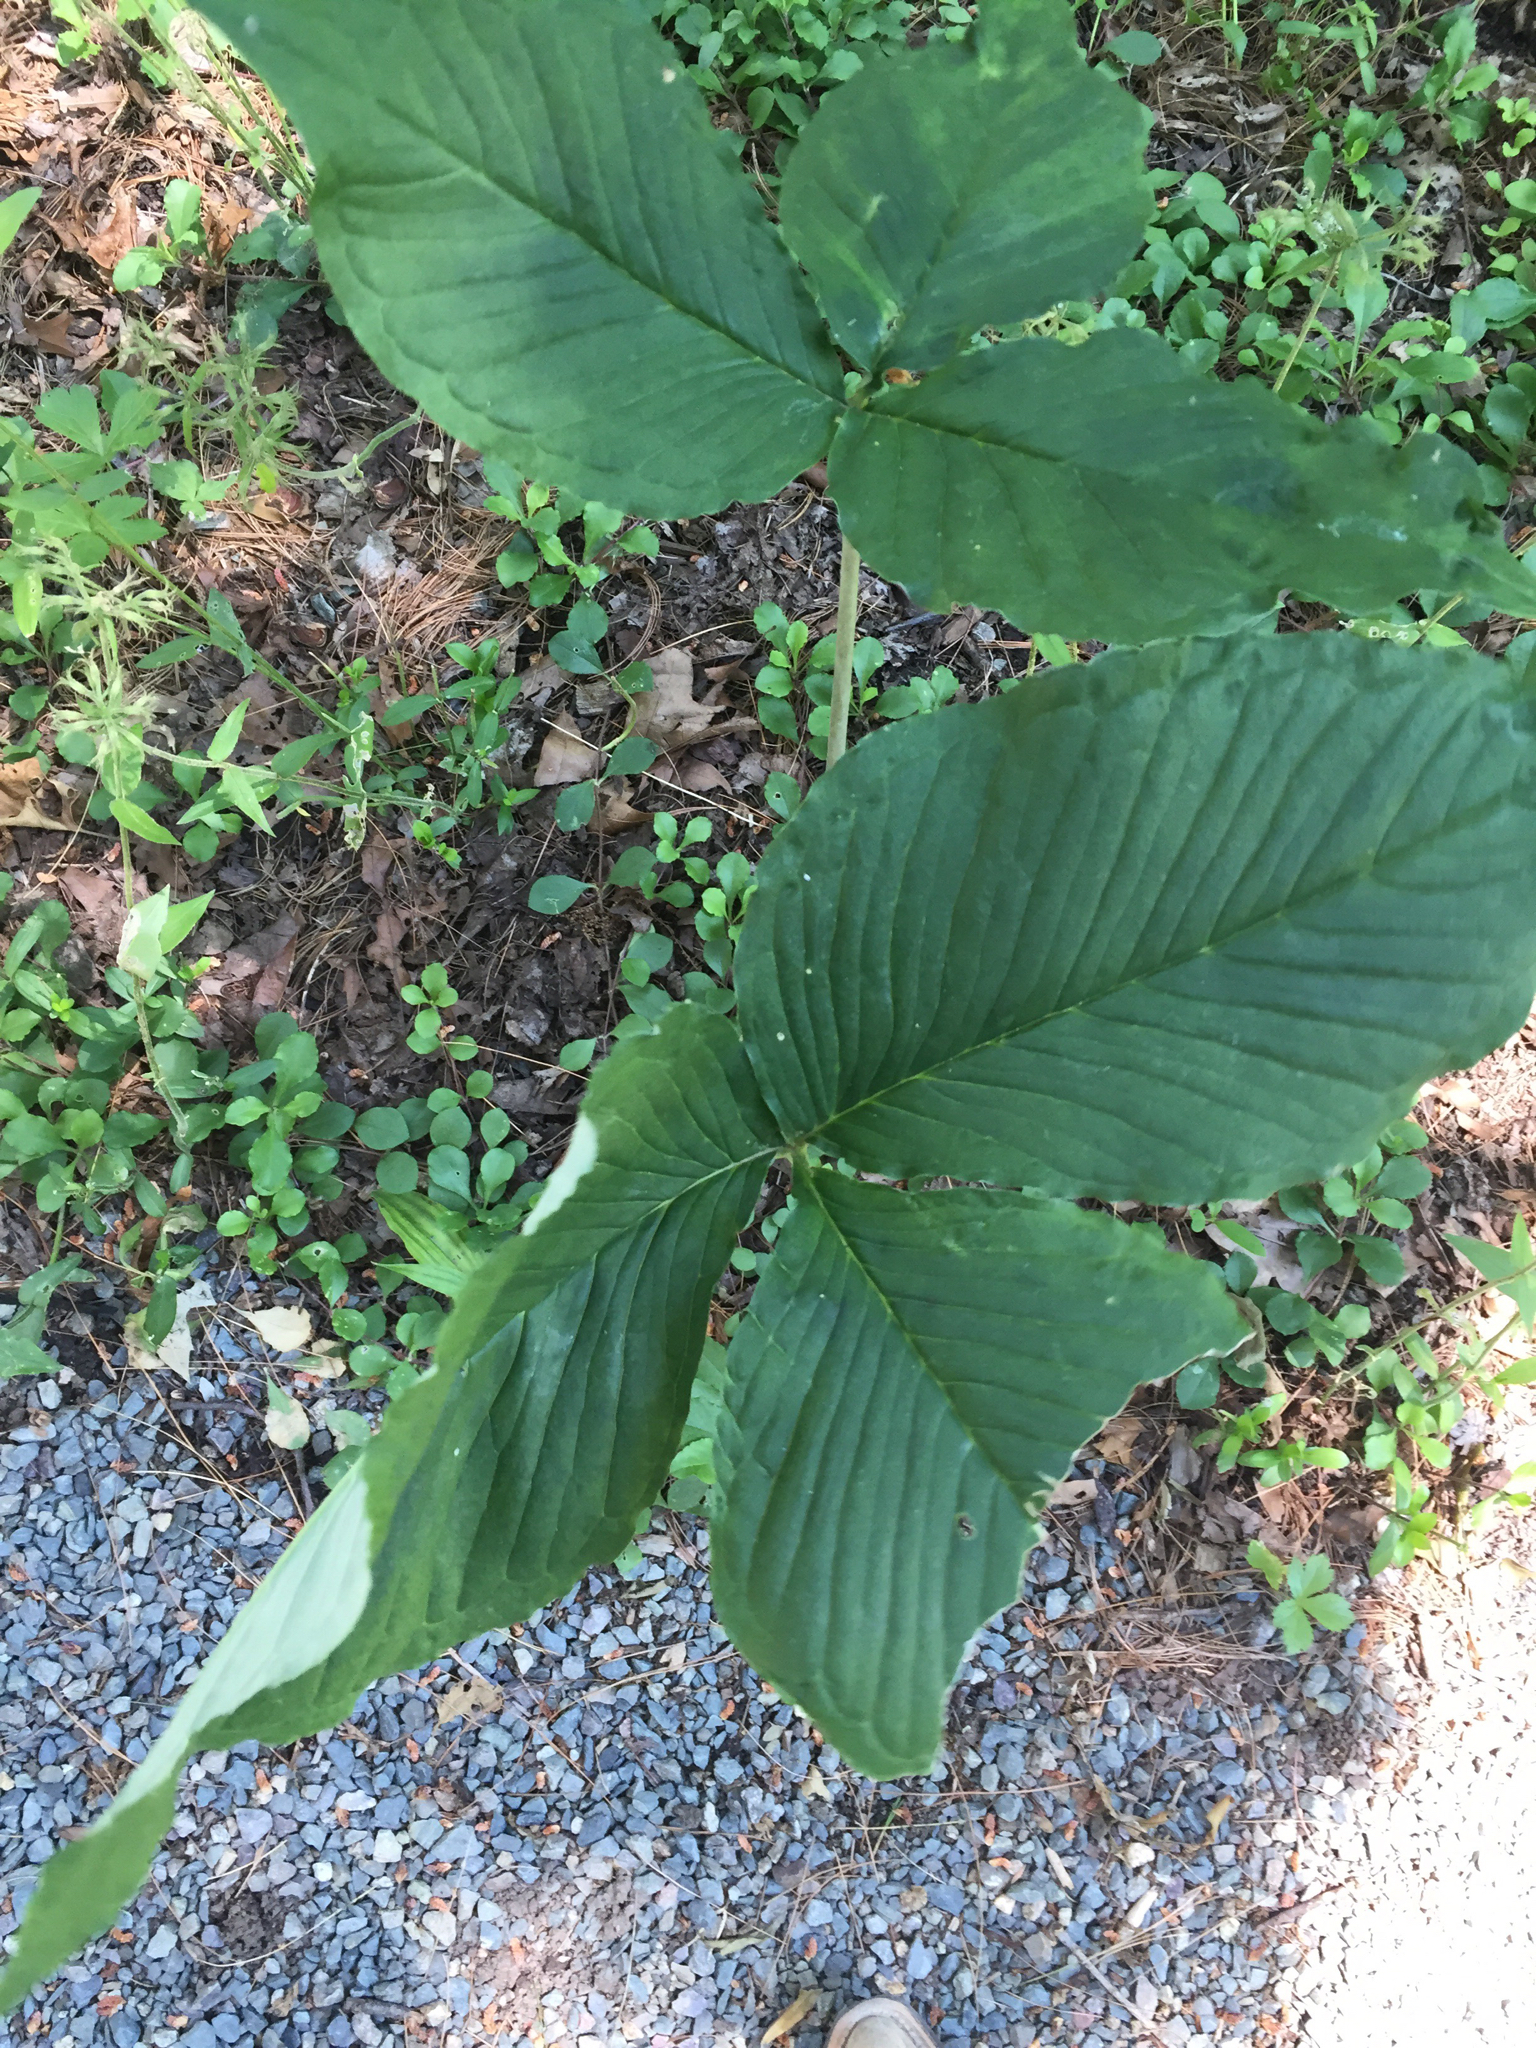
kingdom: Plantae
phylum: Tracheophyta
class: Liliopsida
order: Alismatales
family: Araceae
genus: Arisaema
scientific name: Arisaema triphyllum
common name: Jack-in-the-pulpit
